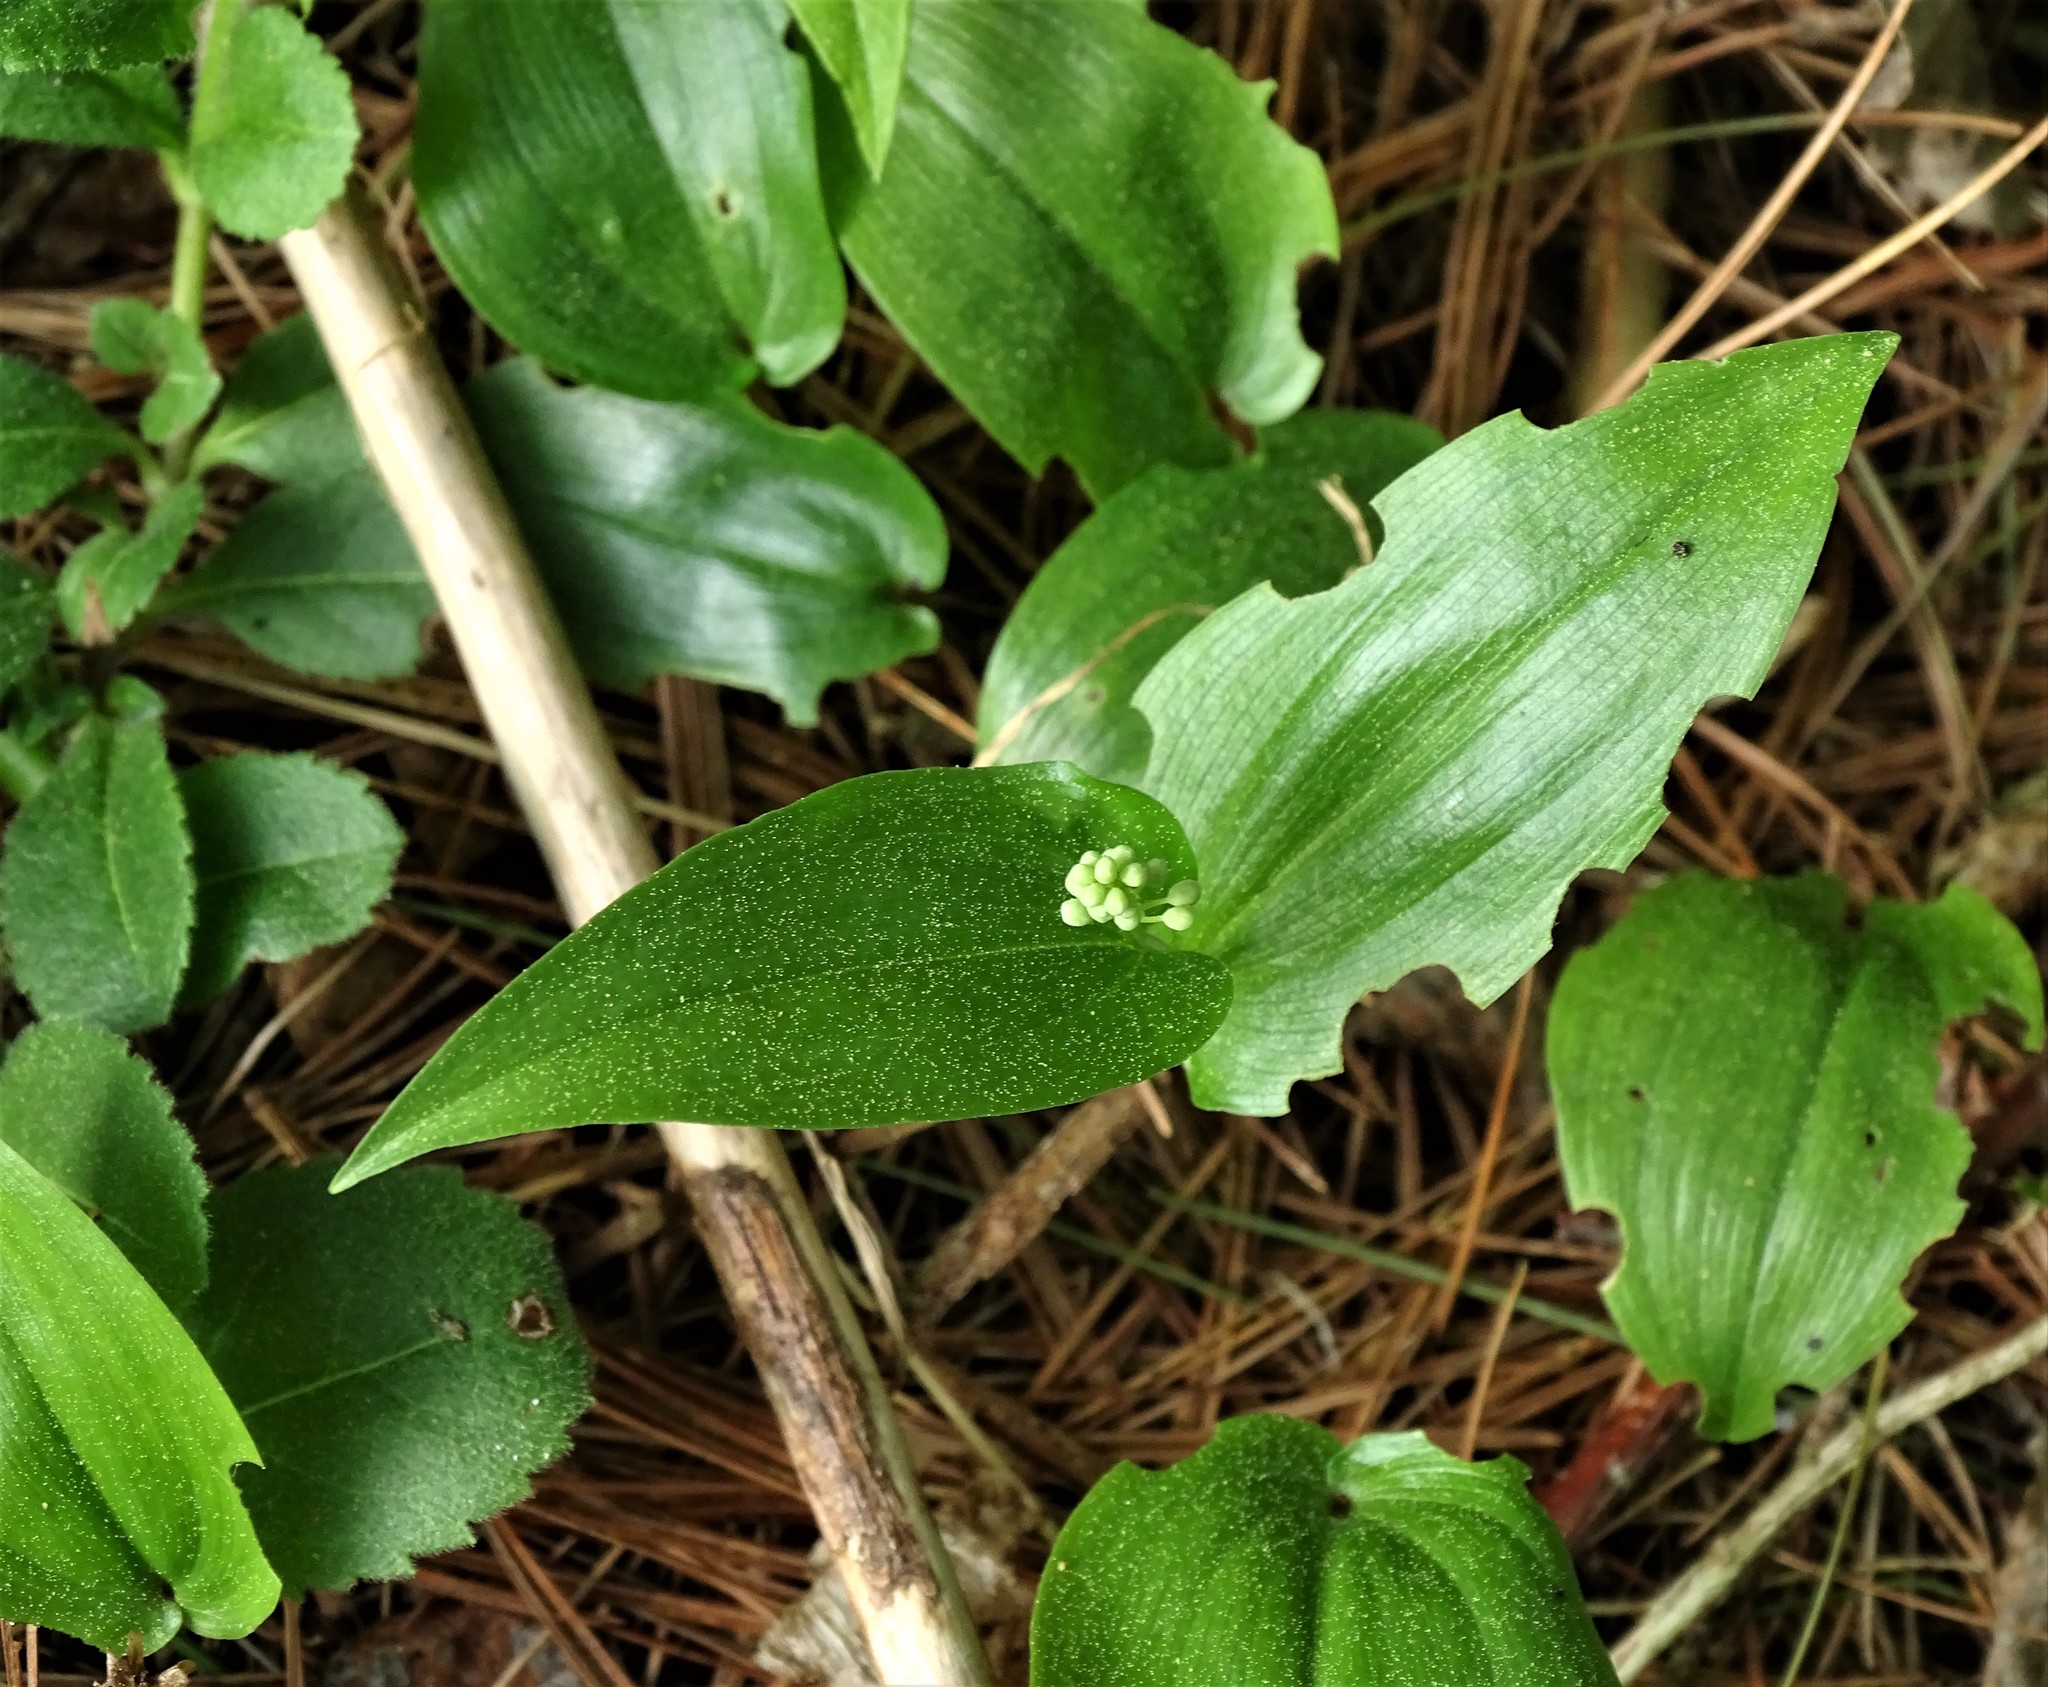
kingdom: Plantae
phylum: Tracheophyta
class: Liliopsida
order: Asparagales
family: Asparagaceae
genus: Maianthemum
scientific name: Maianthemum canadense
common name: False lily-of-the-valley
